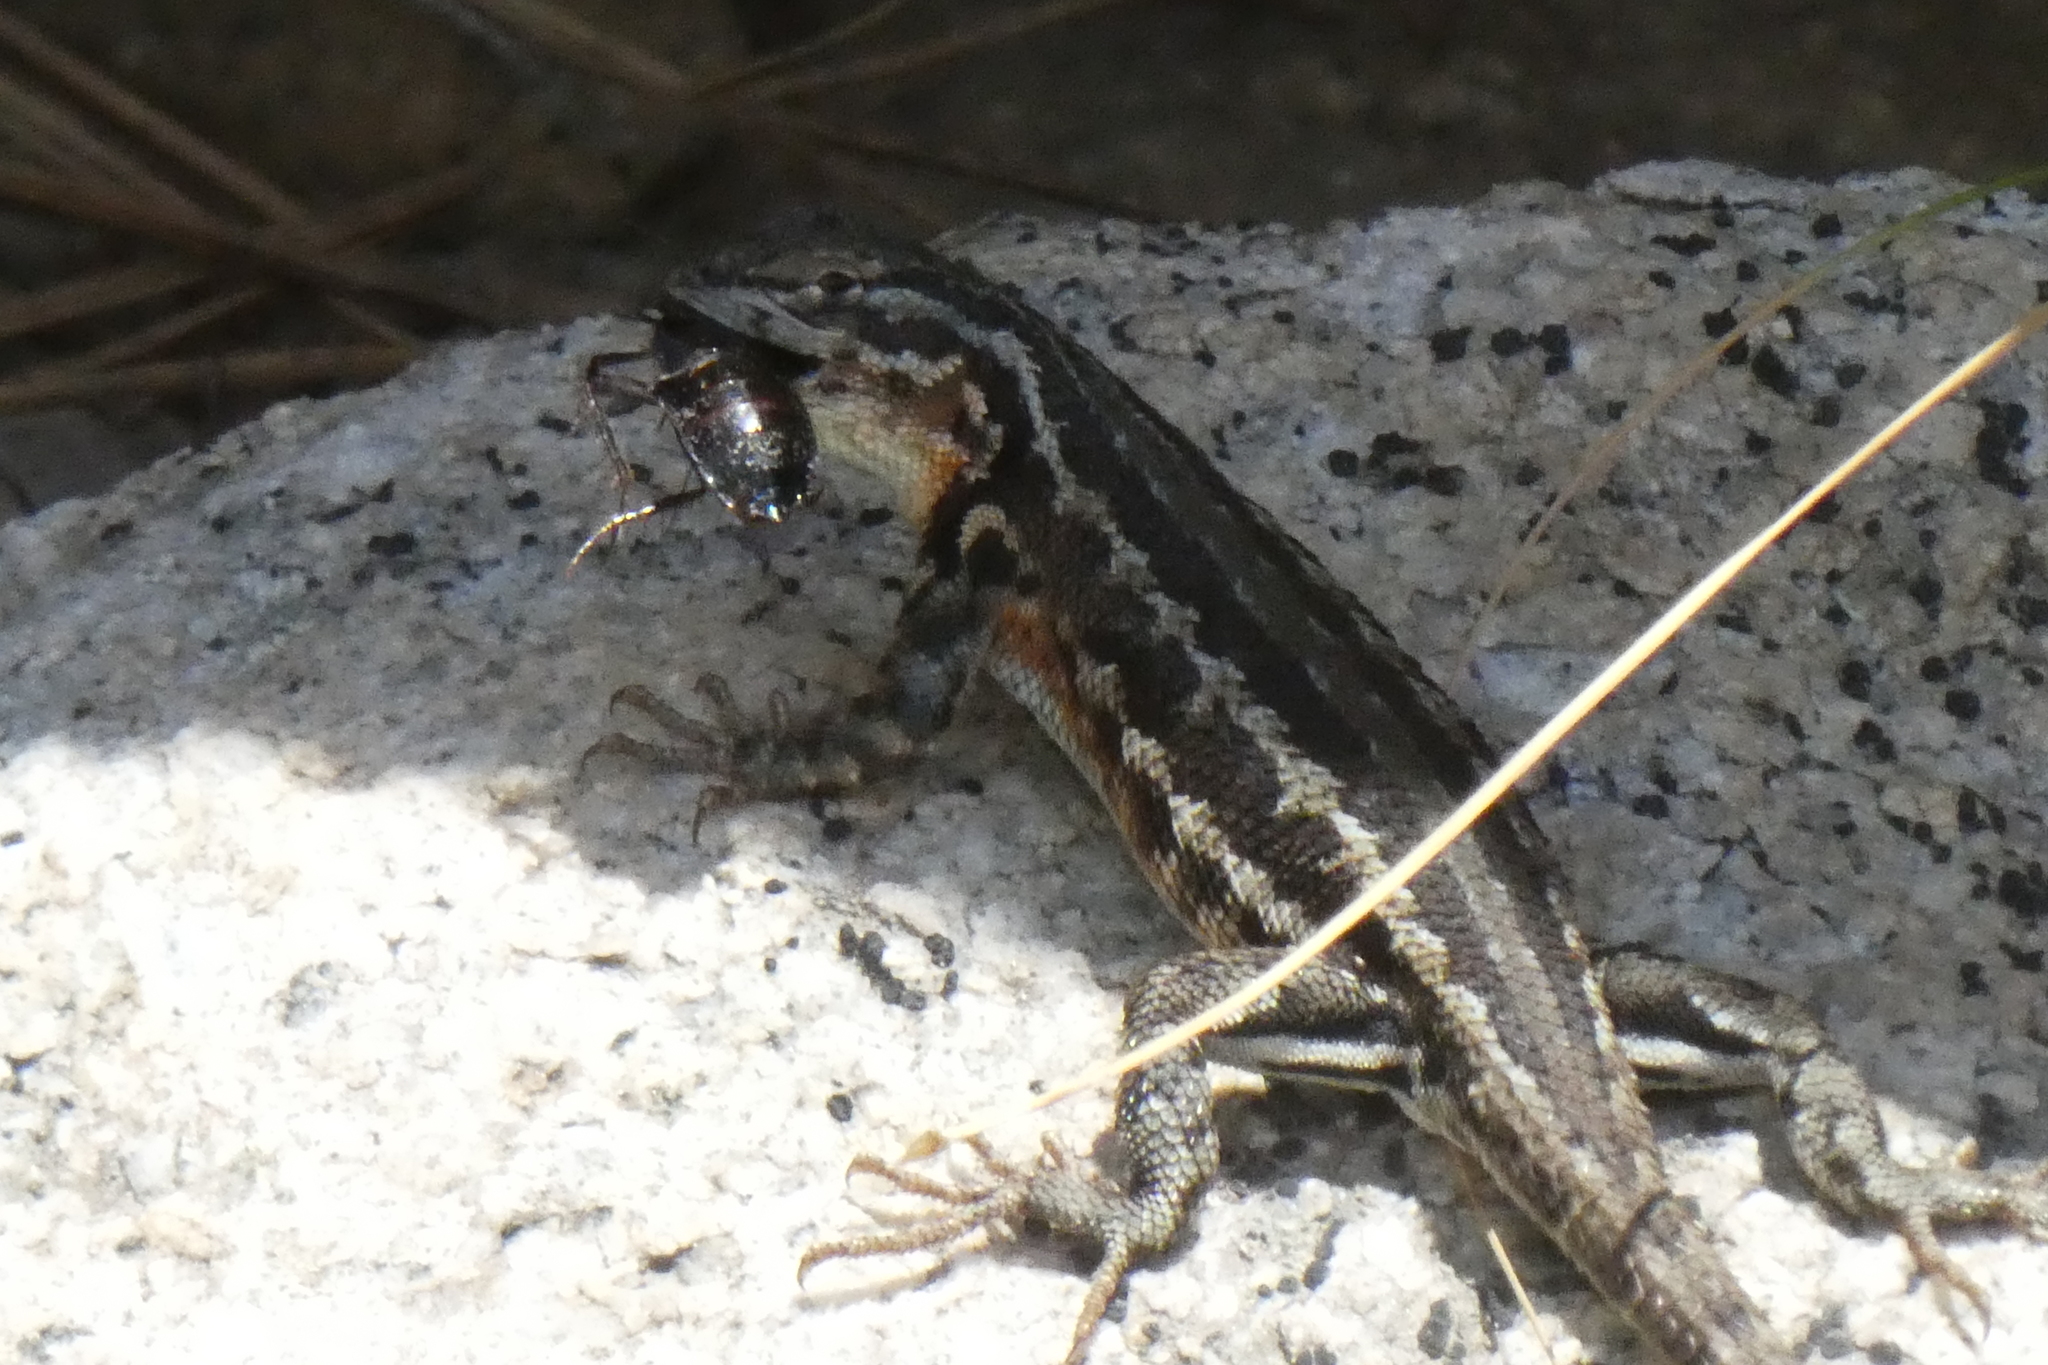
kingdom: Animalia
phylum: Chordata
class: Squamata
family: Phrynosomatidae
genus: Sceloporus
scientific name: Sceloporus graciosus
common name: Sagebrush lizard
